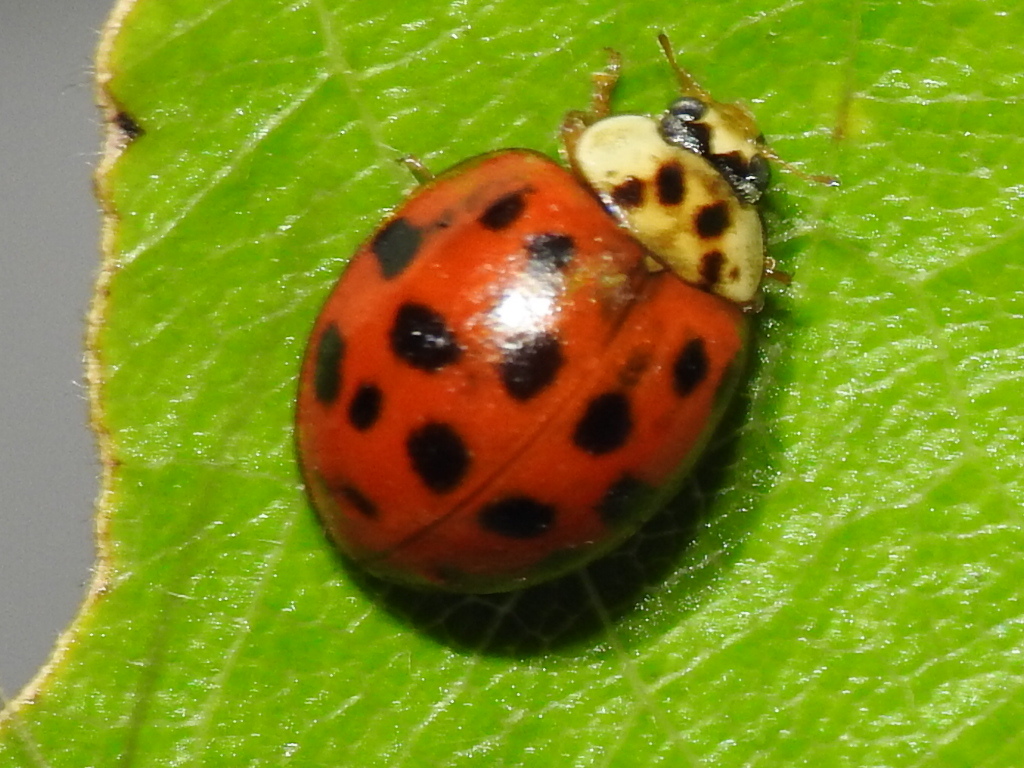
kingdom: Animalia
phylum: Arthropoda
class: Insecta
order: Coleoptera
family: Coccinellidae
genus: Harmonia
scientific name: Harmonia axyridis
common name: Harlequin ladybird
